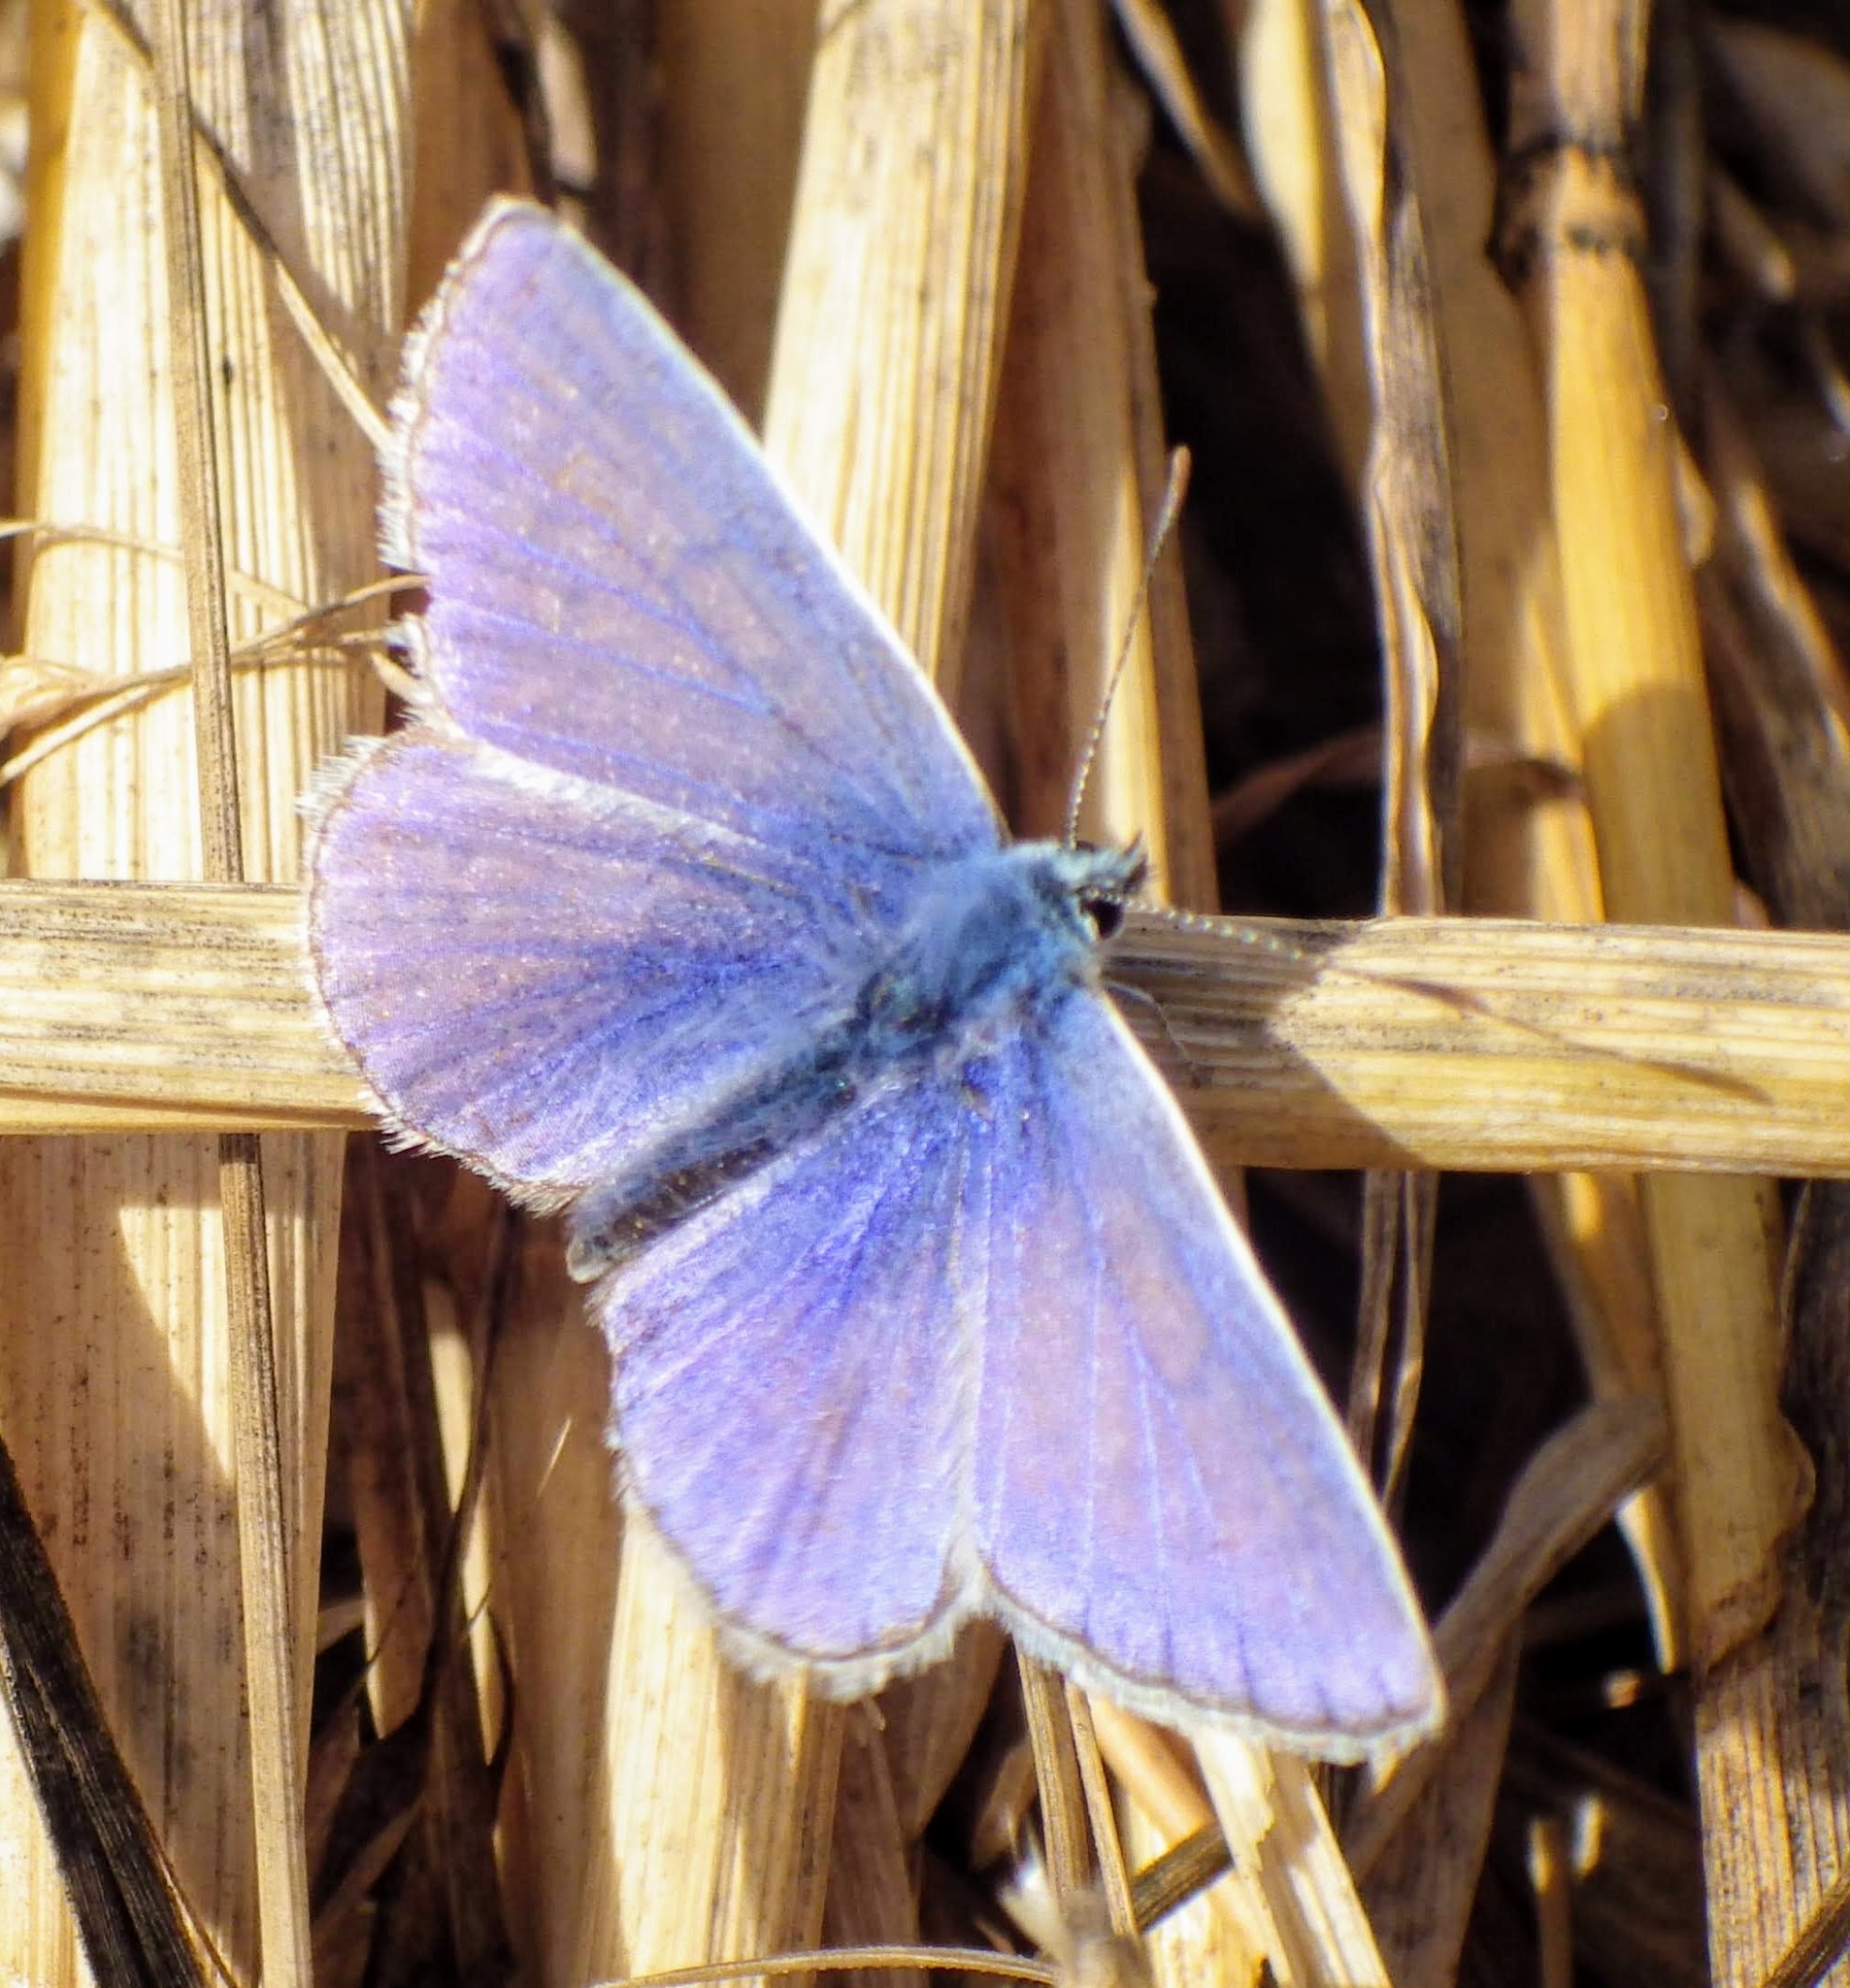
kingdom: Animalia
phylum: Arthropoda
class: Insecta
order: Lepidoptera
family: Lycaenidae
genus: Polyommatus
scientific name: Polyommatus icarus
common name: Common blue
